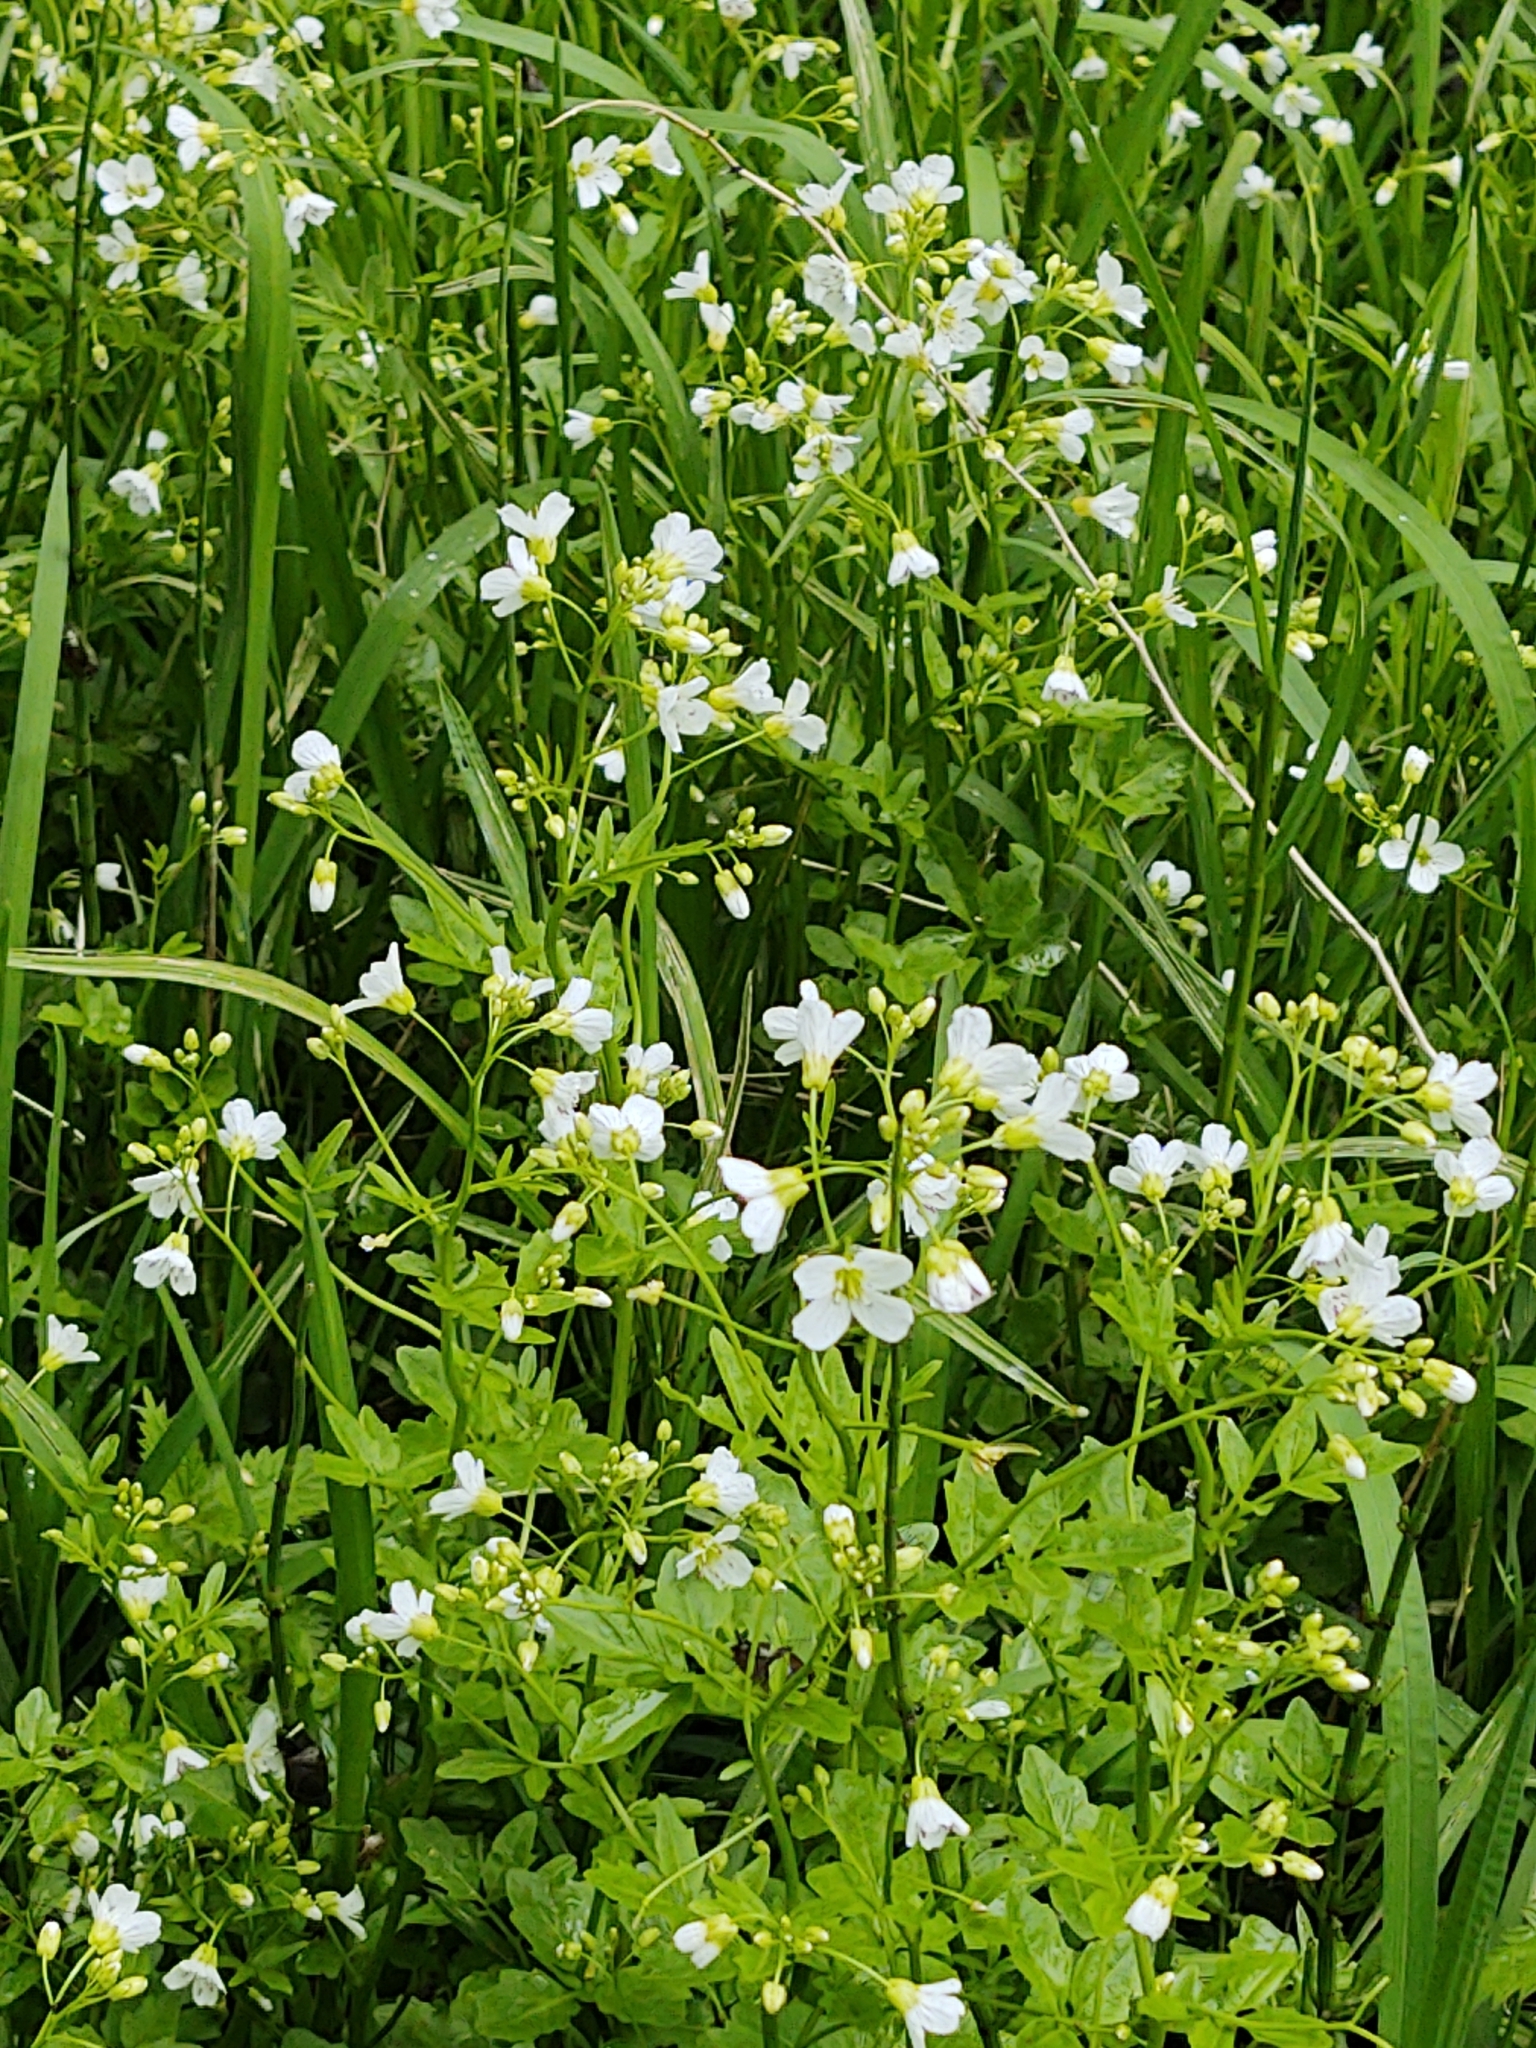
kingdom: Plantae
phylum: Tracheophyta
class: Magnoliopsida
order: Brassicales
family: Brassicaceae
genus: Cardamine
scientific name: Cardamine amara
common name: Large bitter-cress
